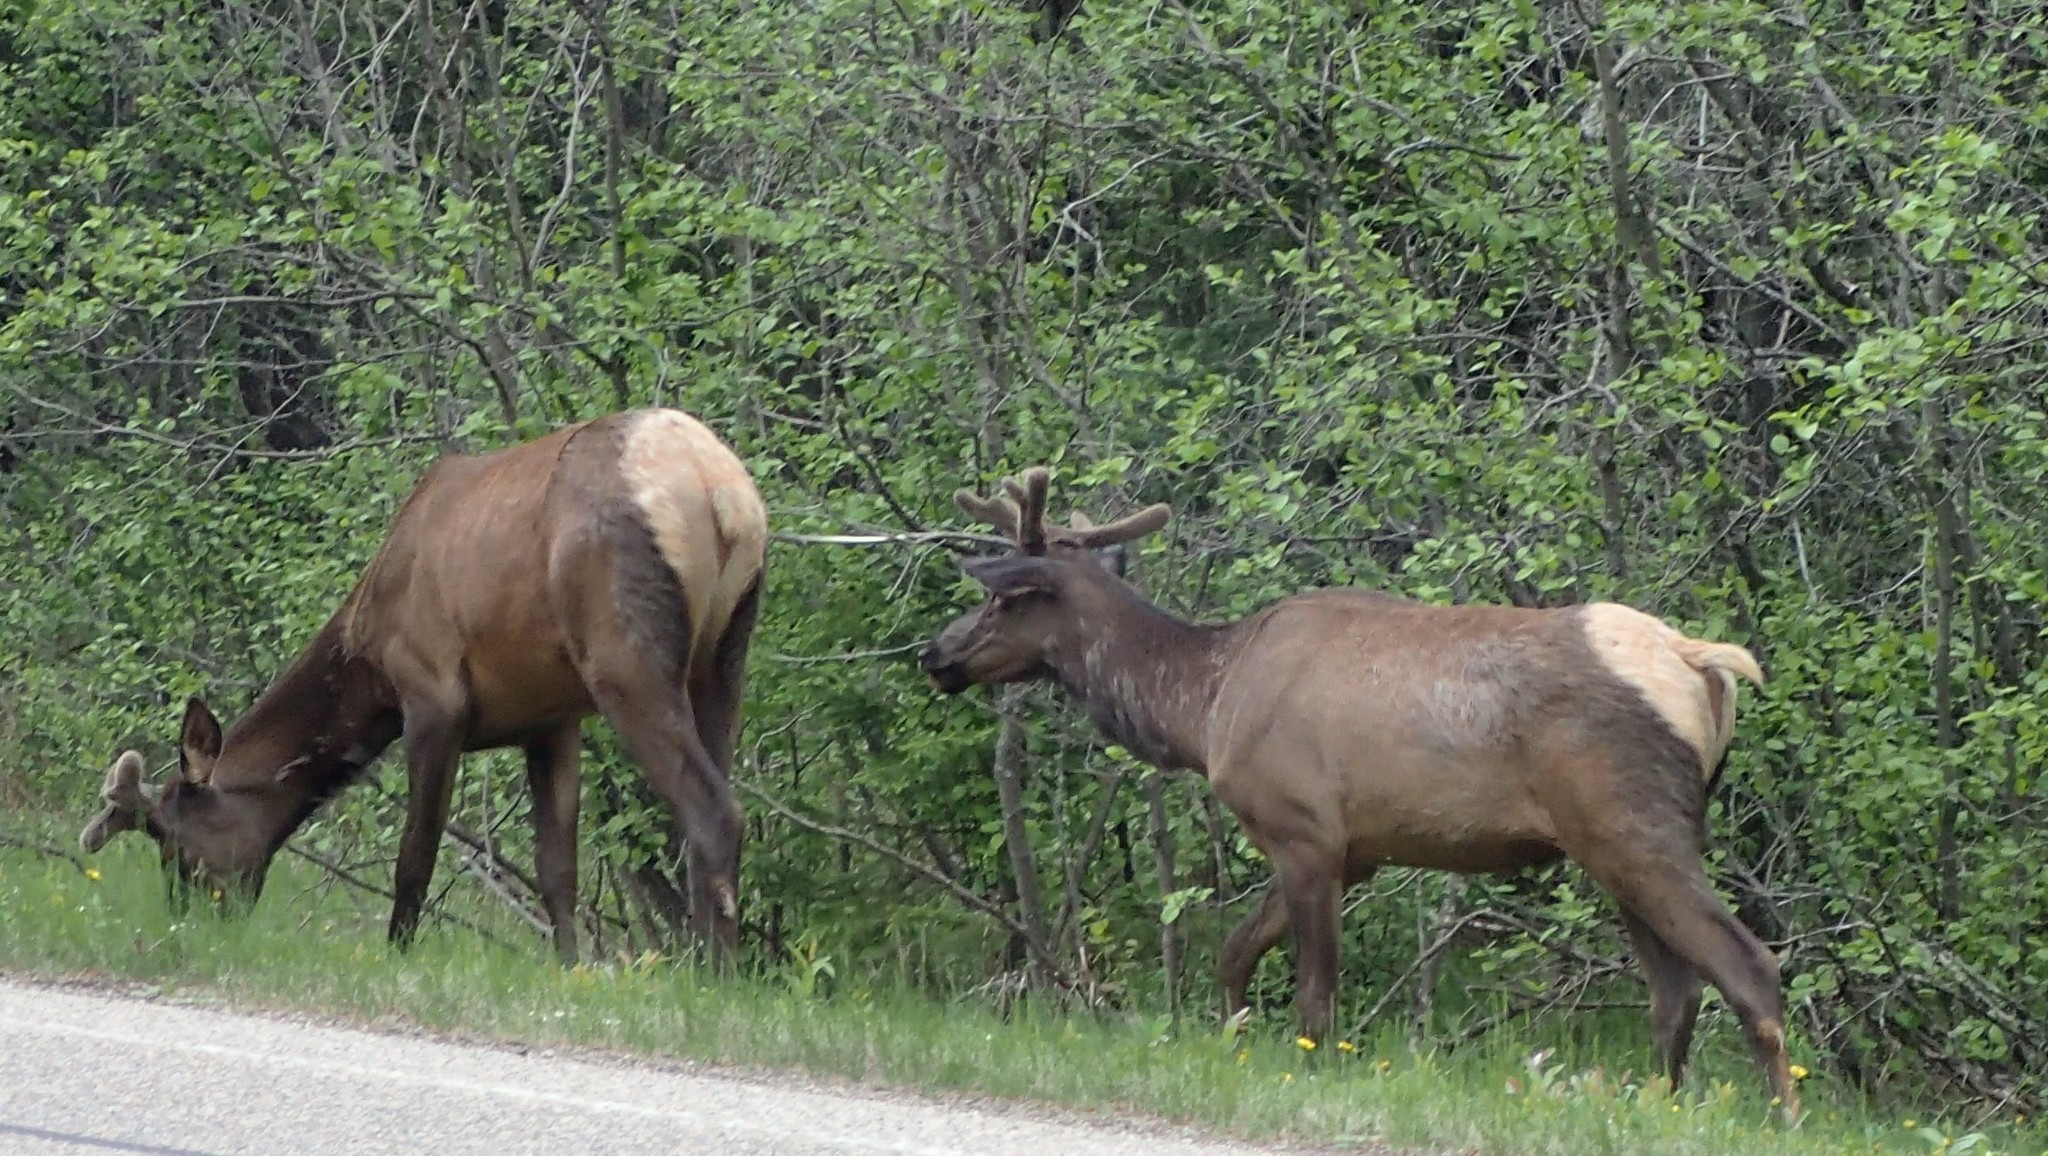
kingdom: Animalia
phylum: Chordata
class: Mammalia
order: Artiodactyla
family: Cervidae
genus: Cervus
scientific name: Cervus elaphus
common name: Red deer
